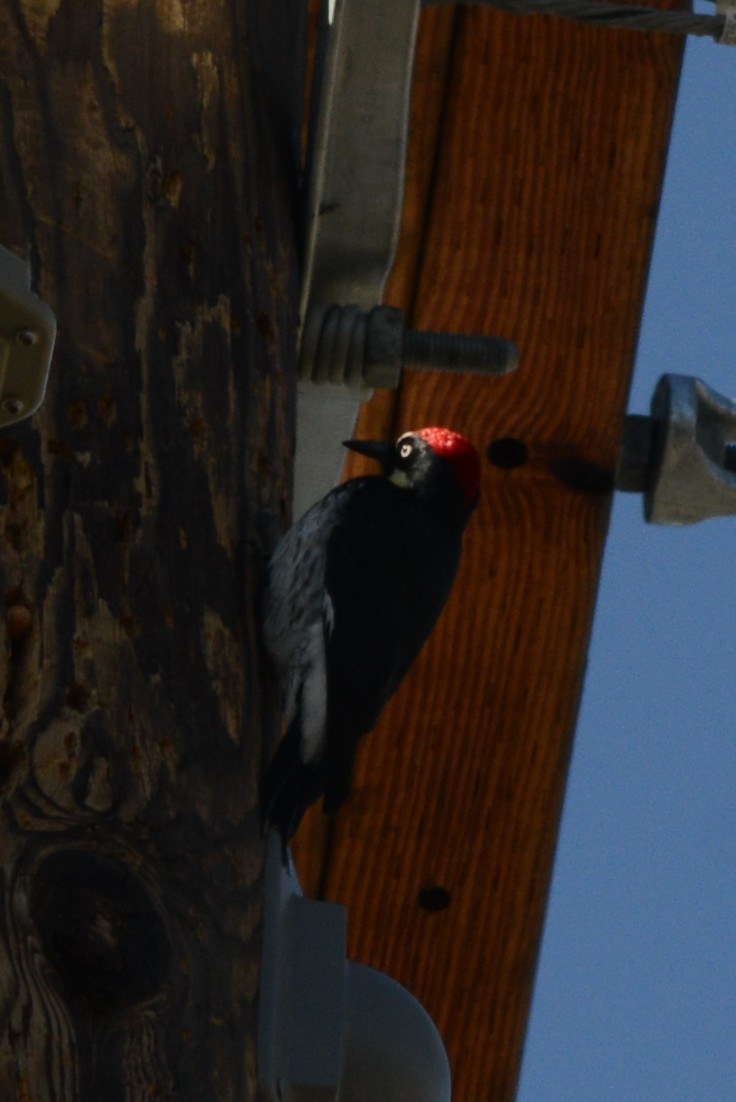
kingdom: Animalia
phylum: Chordata
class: Aves
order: Piciformes
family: Picidae
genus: Melanerpes
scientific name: Melanerpes formicivorus
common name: Acorn woodpecker
